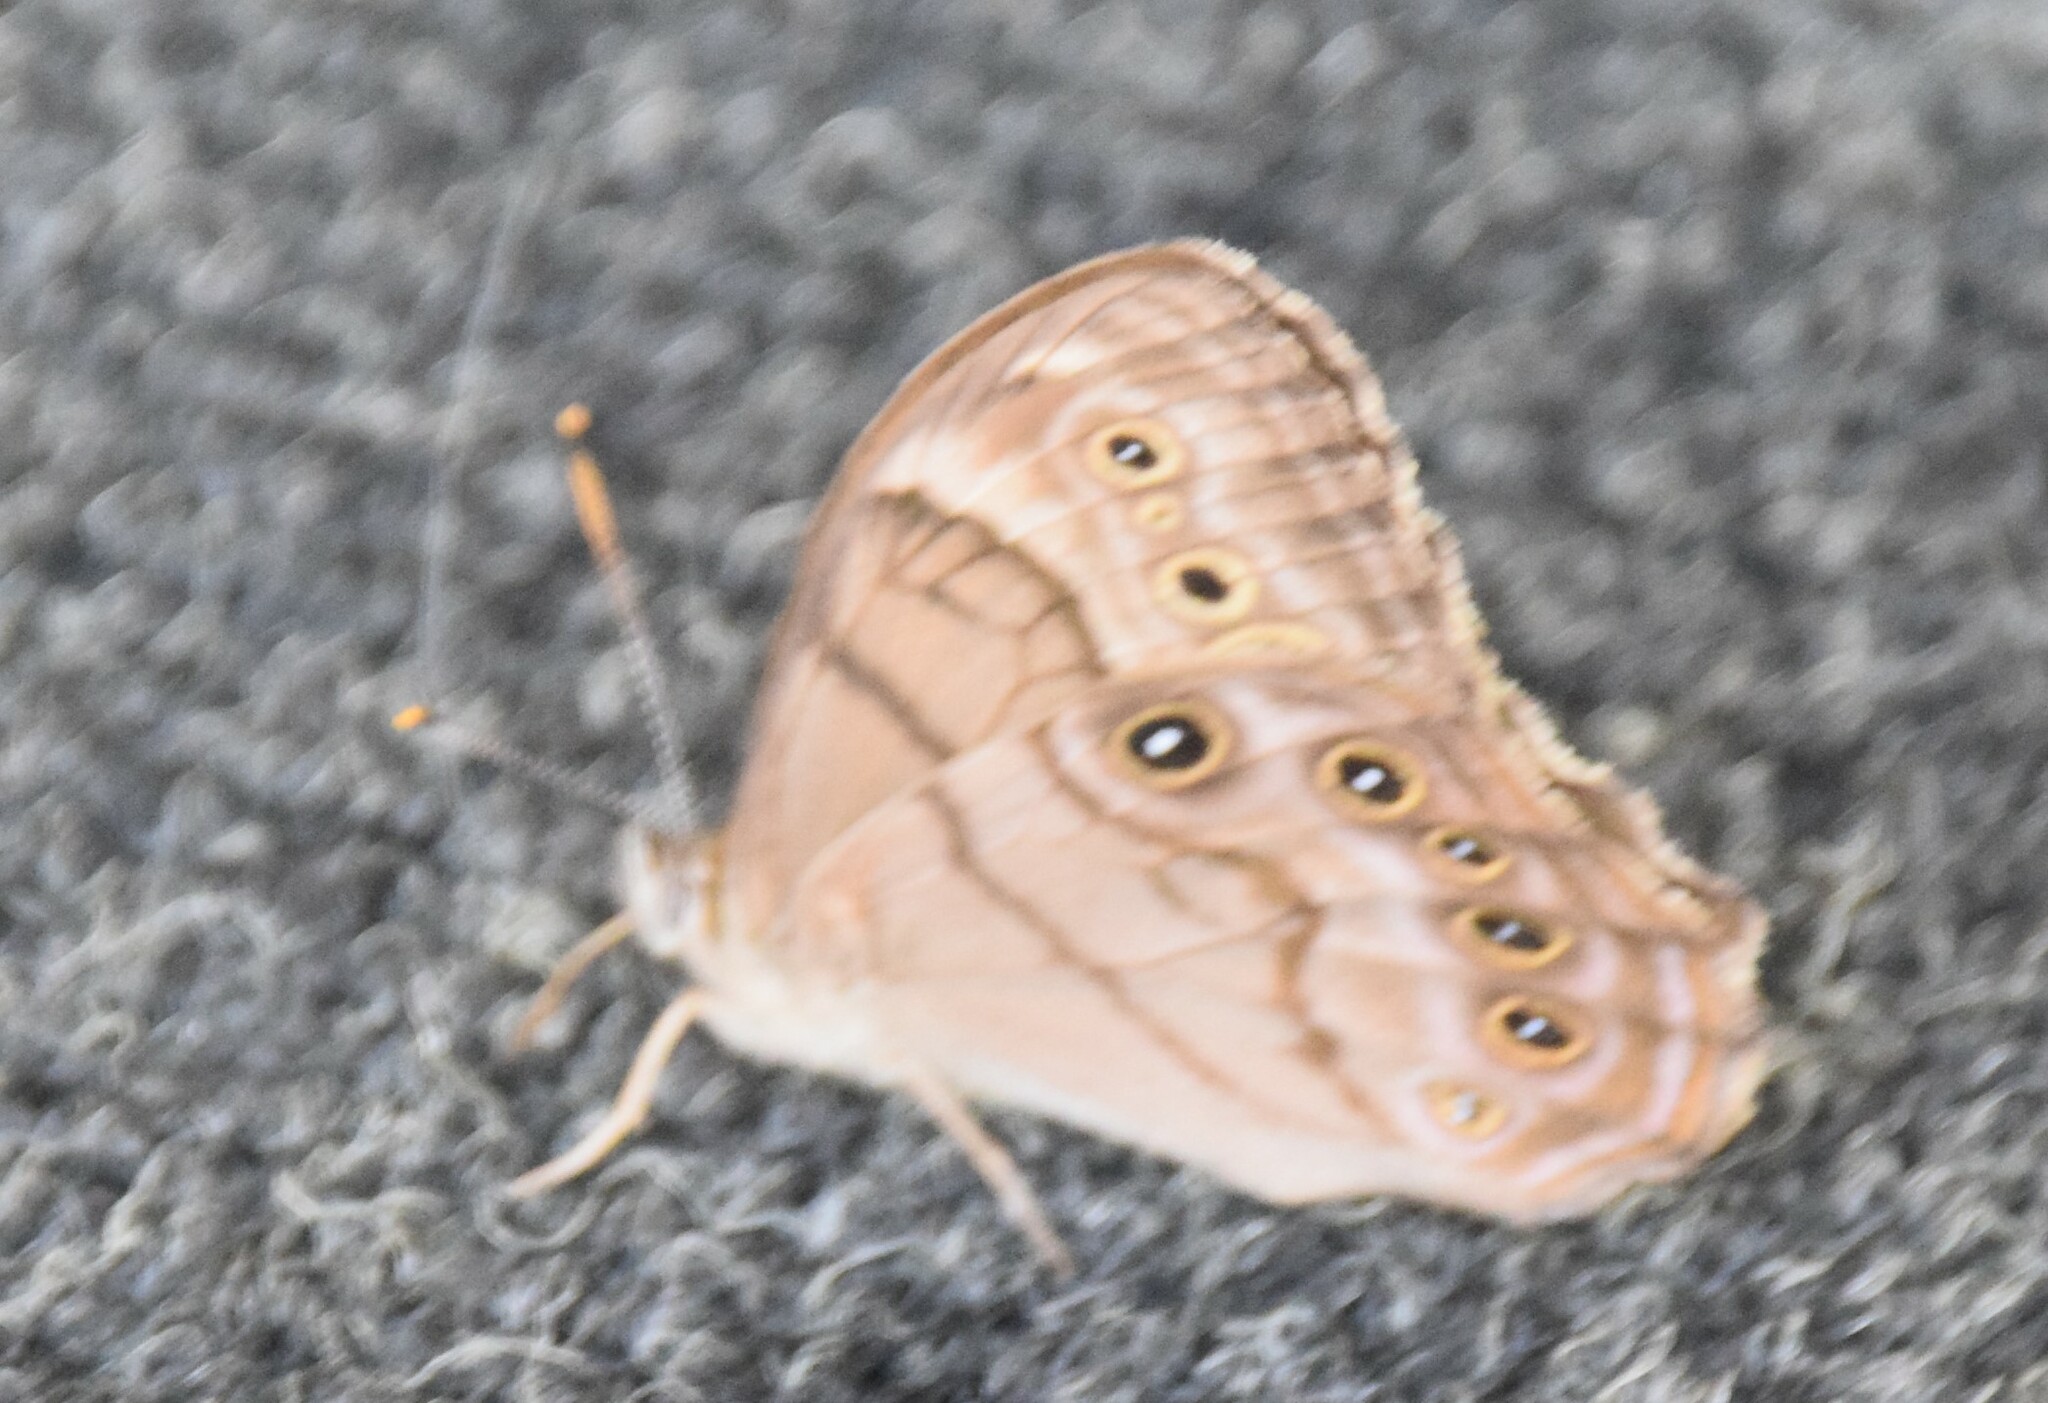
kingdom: Animalia
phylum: Arthropoda
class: Insecta
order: Lepidoptera
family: Nymphalidae
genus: Lethe
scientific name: Lethe anthedon
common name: Northern pearly-eye
